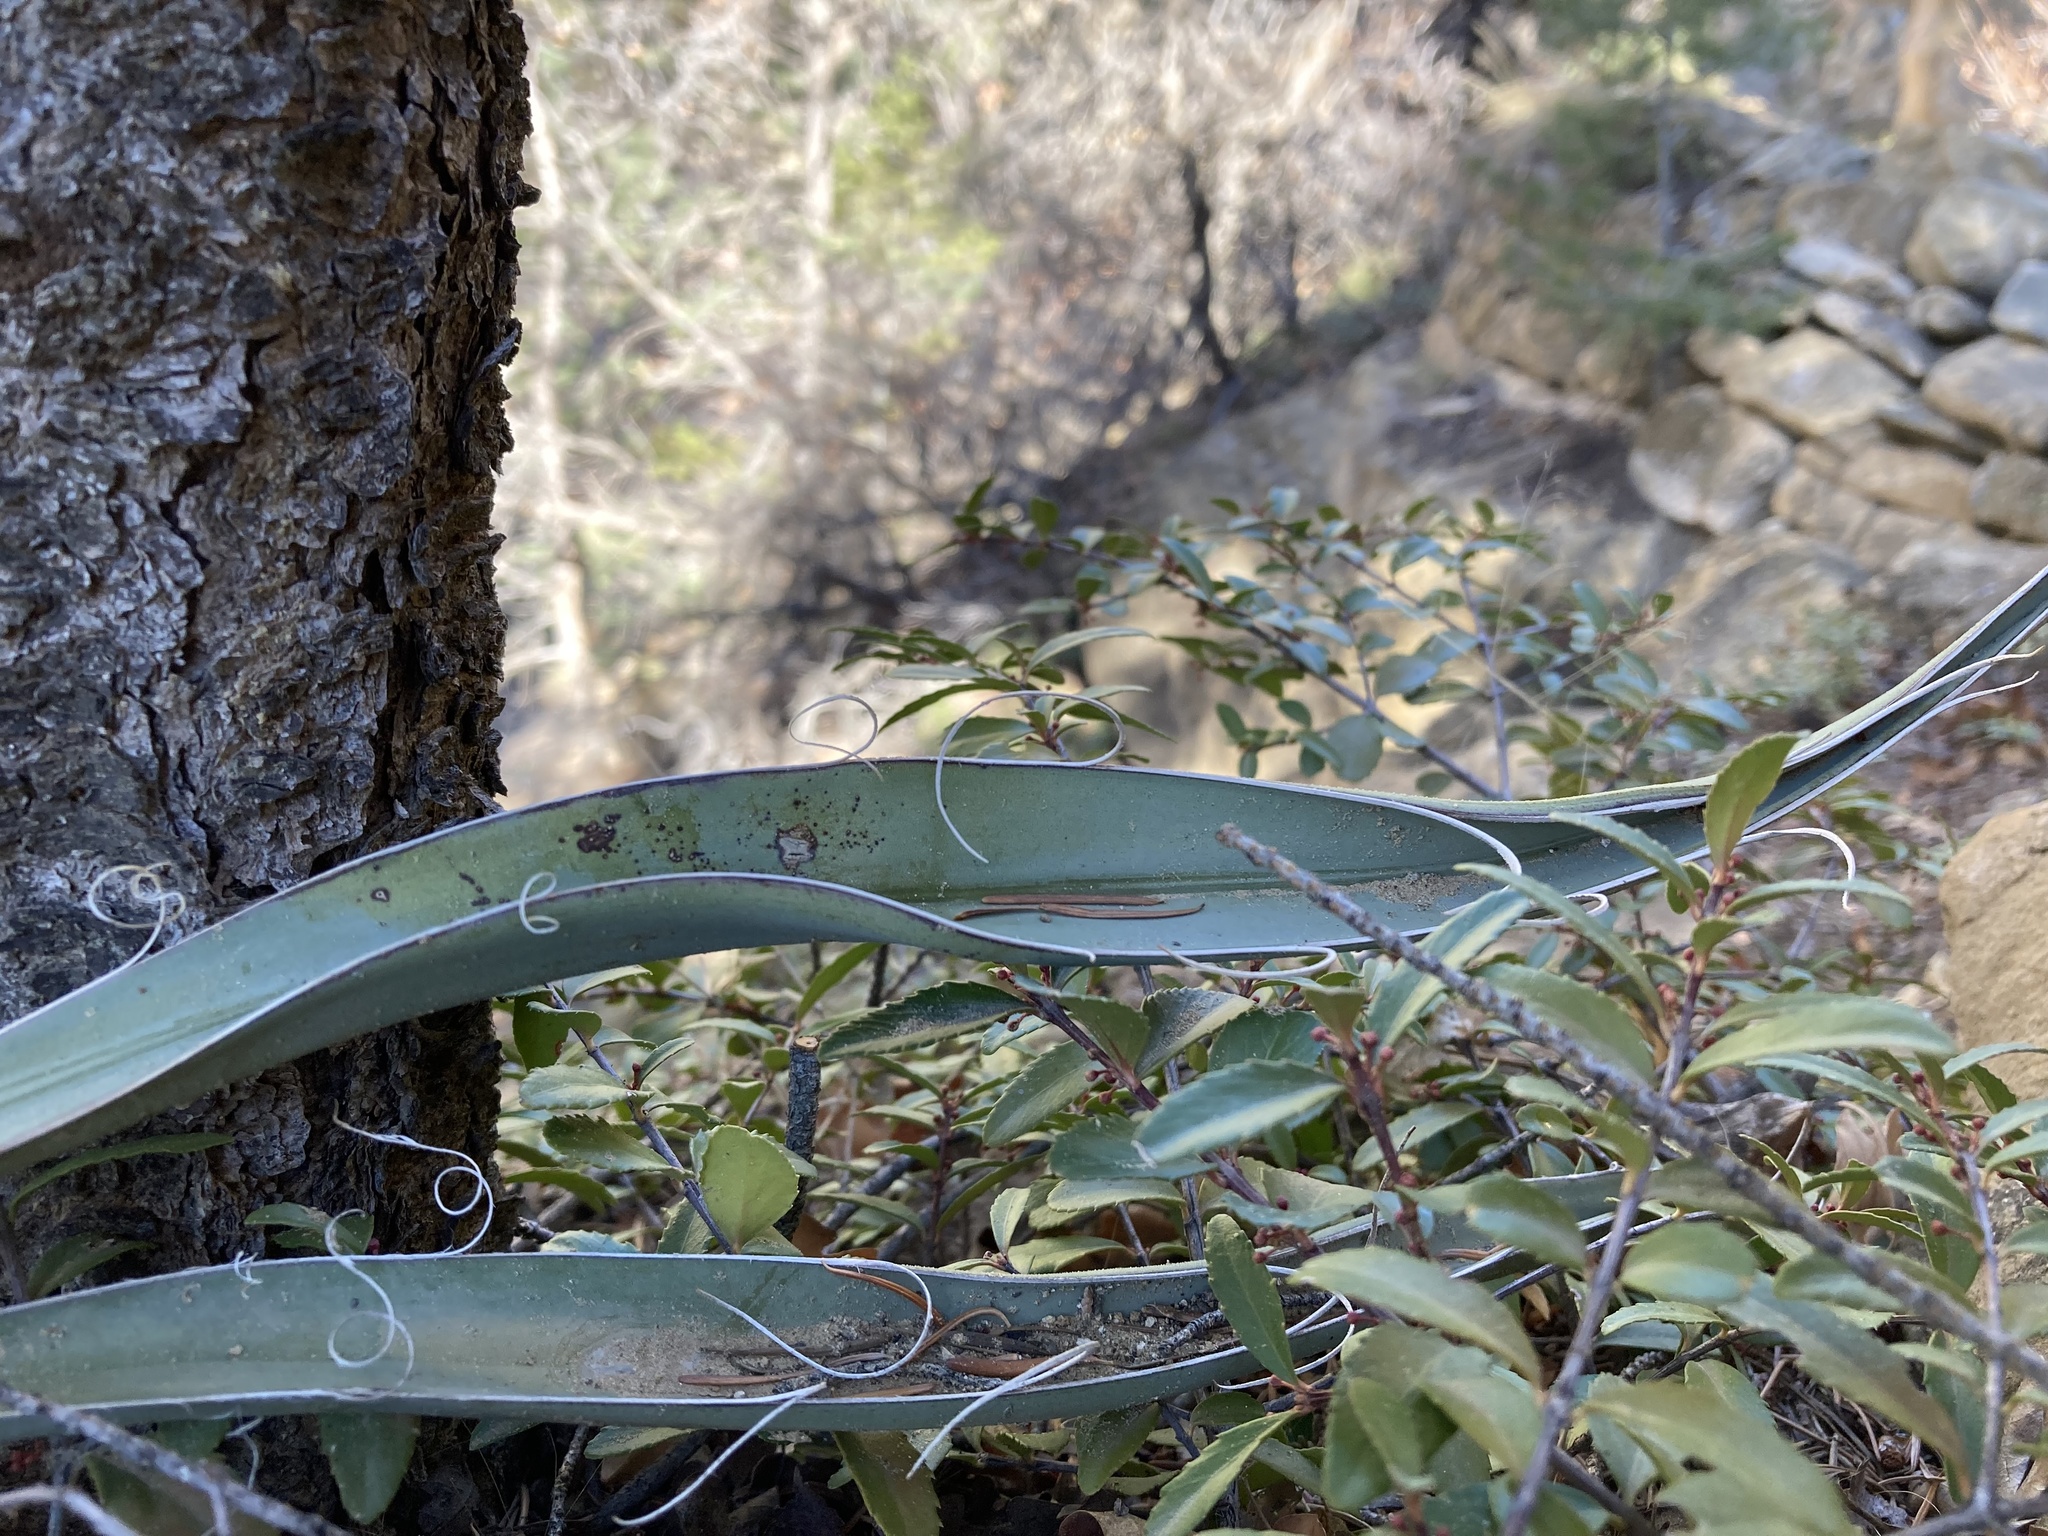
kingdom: Plantae
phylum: Tracheophyta
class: Liliopsida
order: Asparagales
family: Asparagaceae
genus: Yucca
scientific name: Yucca baccata
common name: Banana yucca
